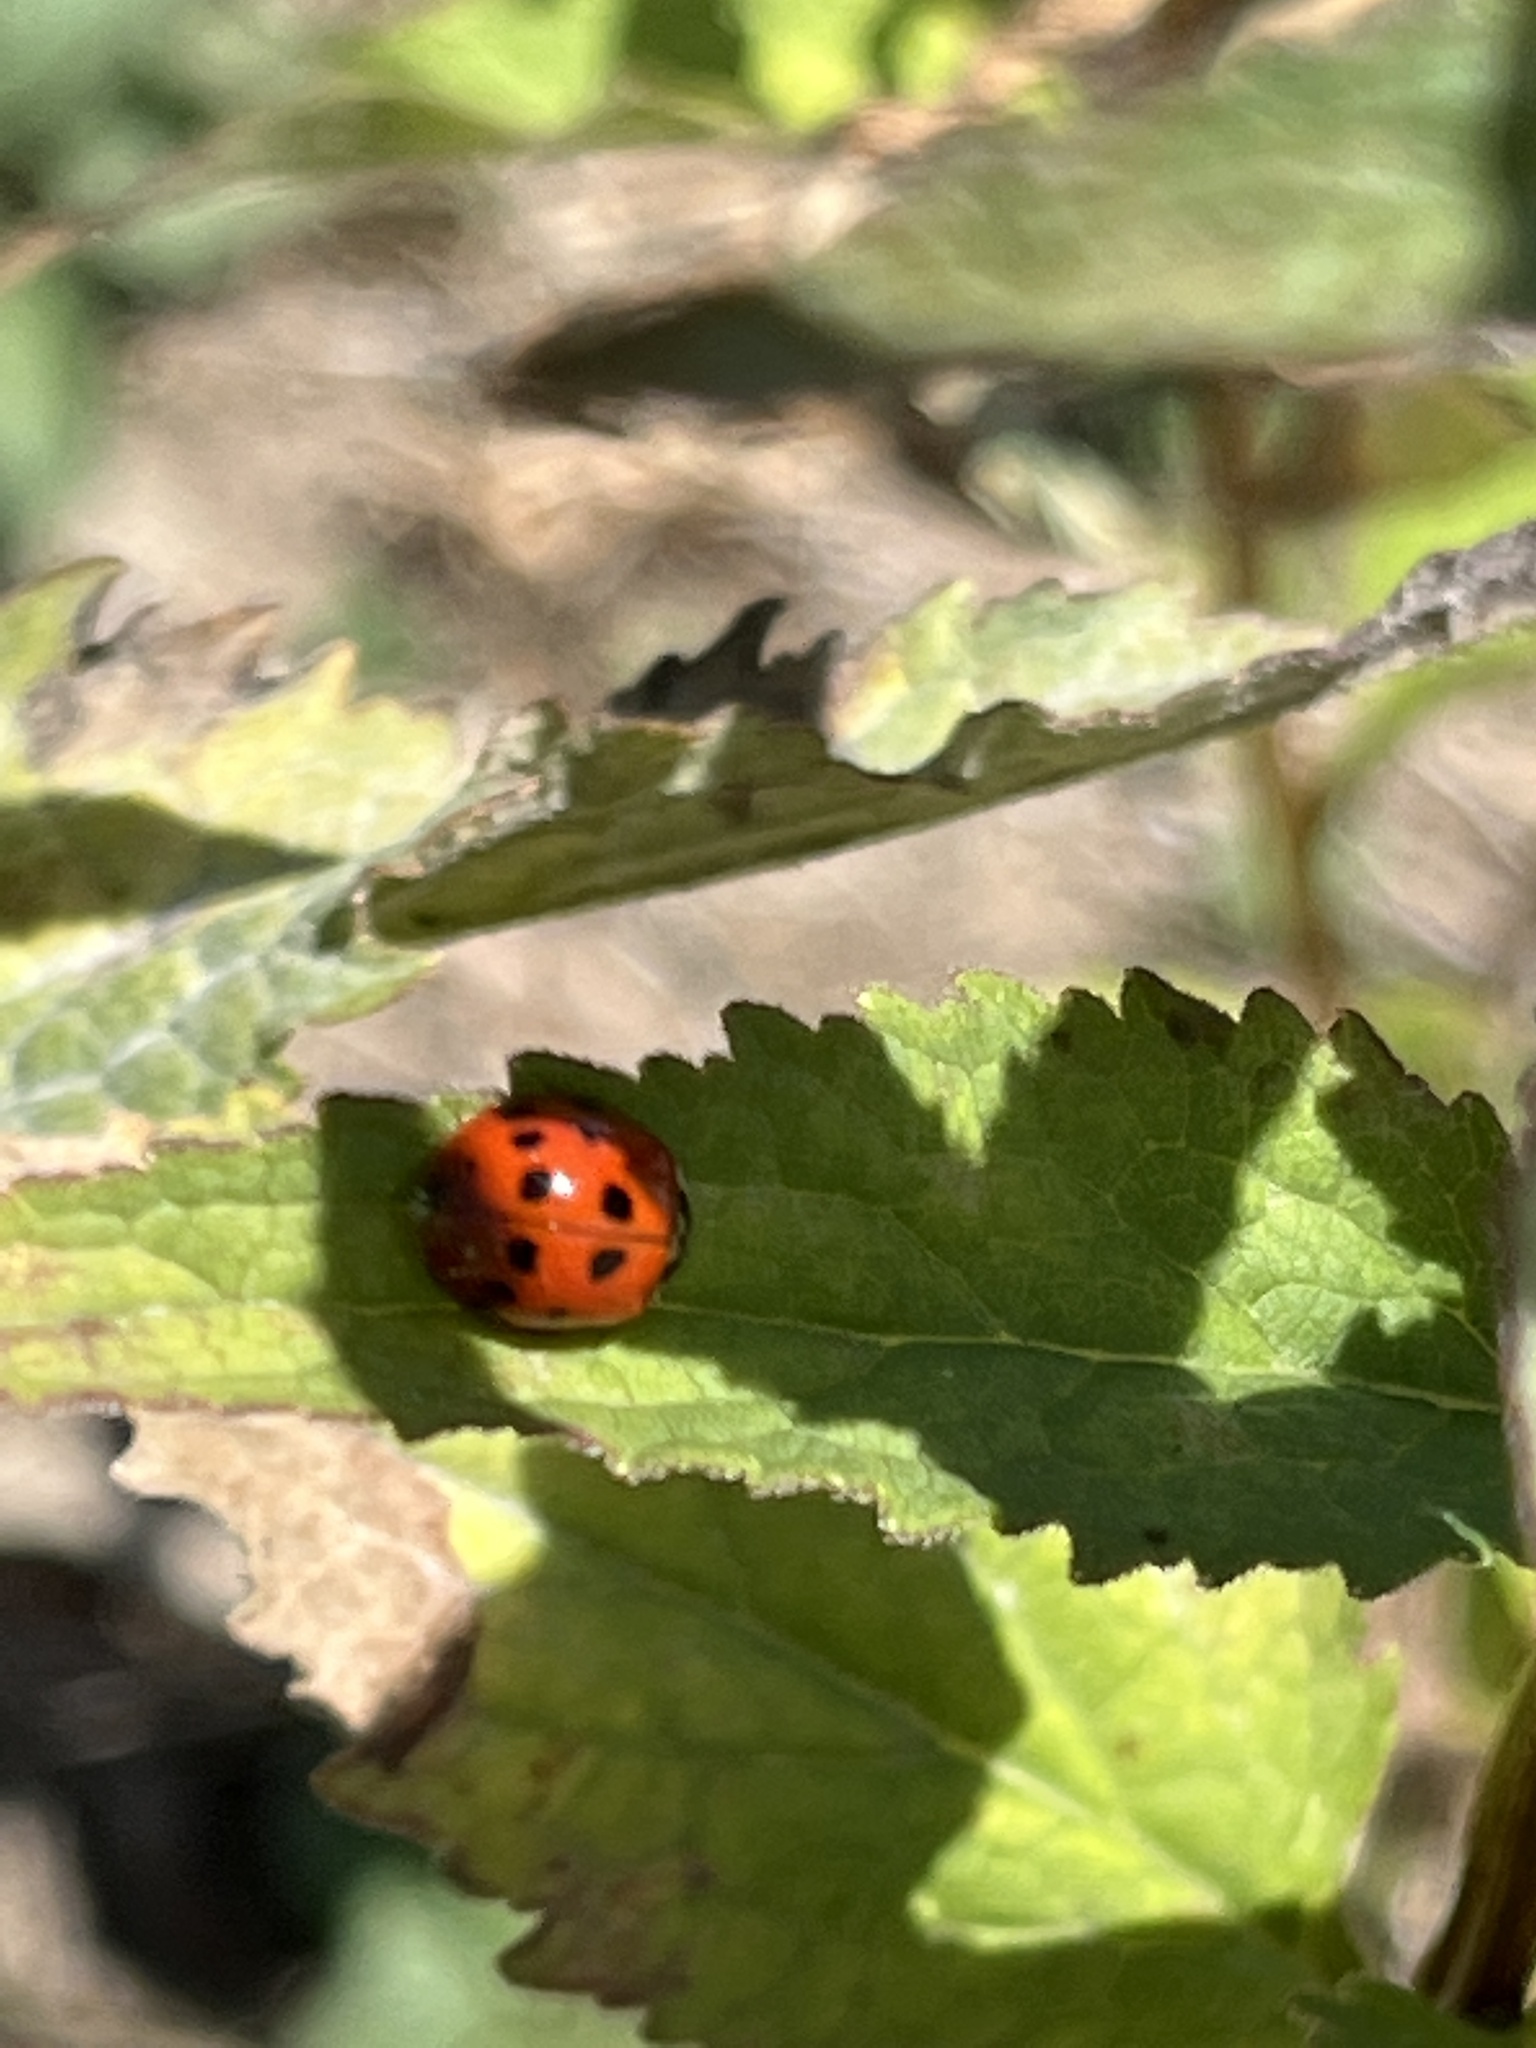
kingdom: Animalia
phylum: Arthropoda
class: Insecta
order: Coleoptera
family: Coccinellidae
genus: Harmonia
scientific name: Harmonia axyridis
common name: Harlequin ladybird
